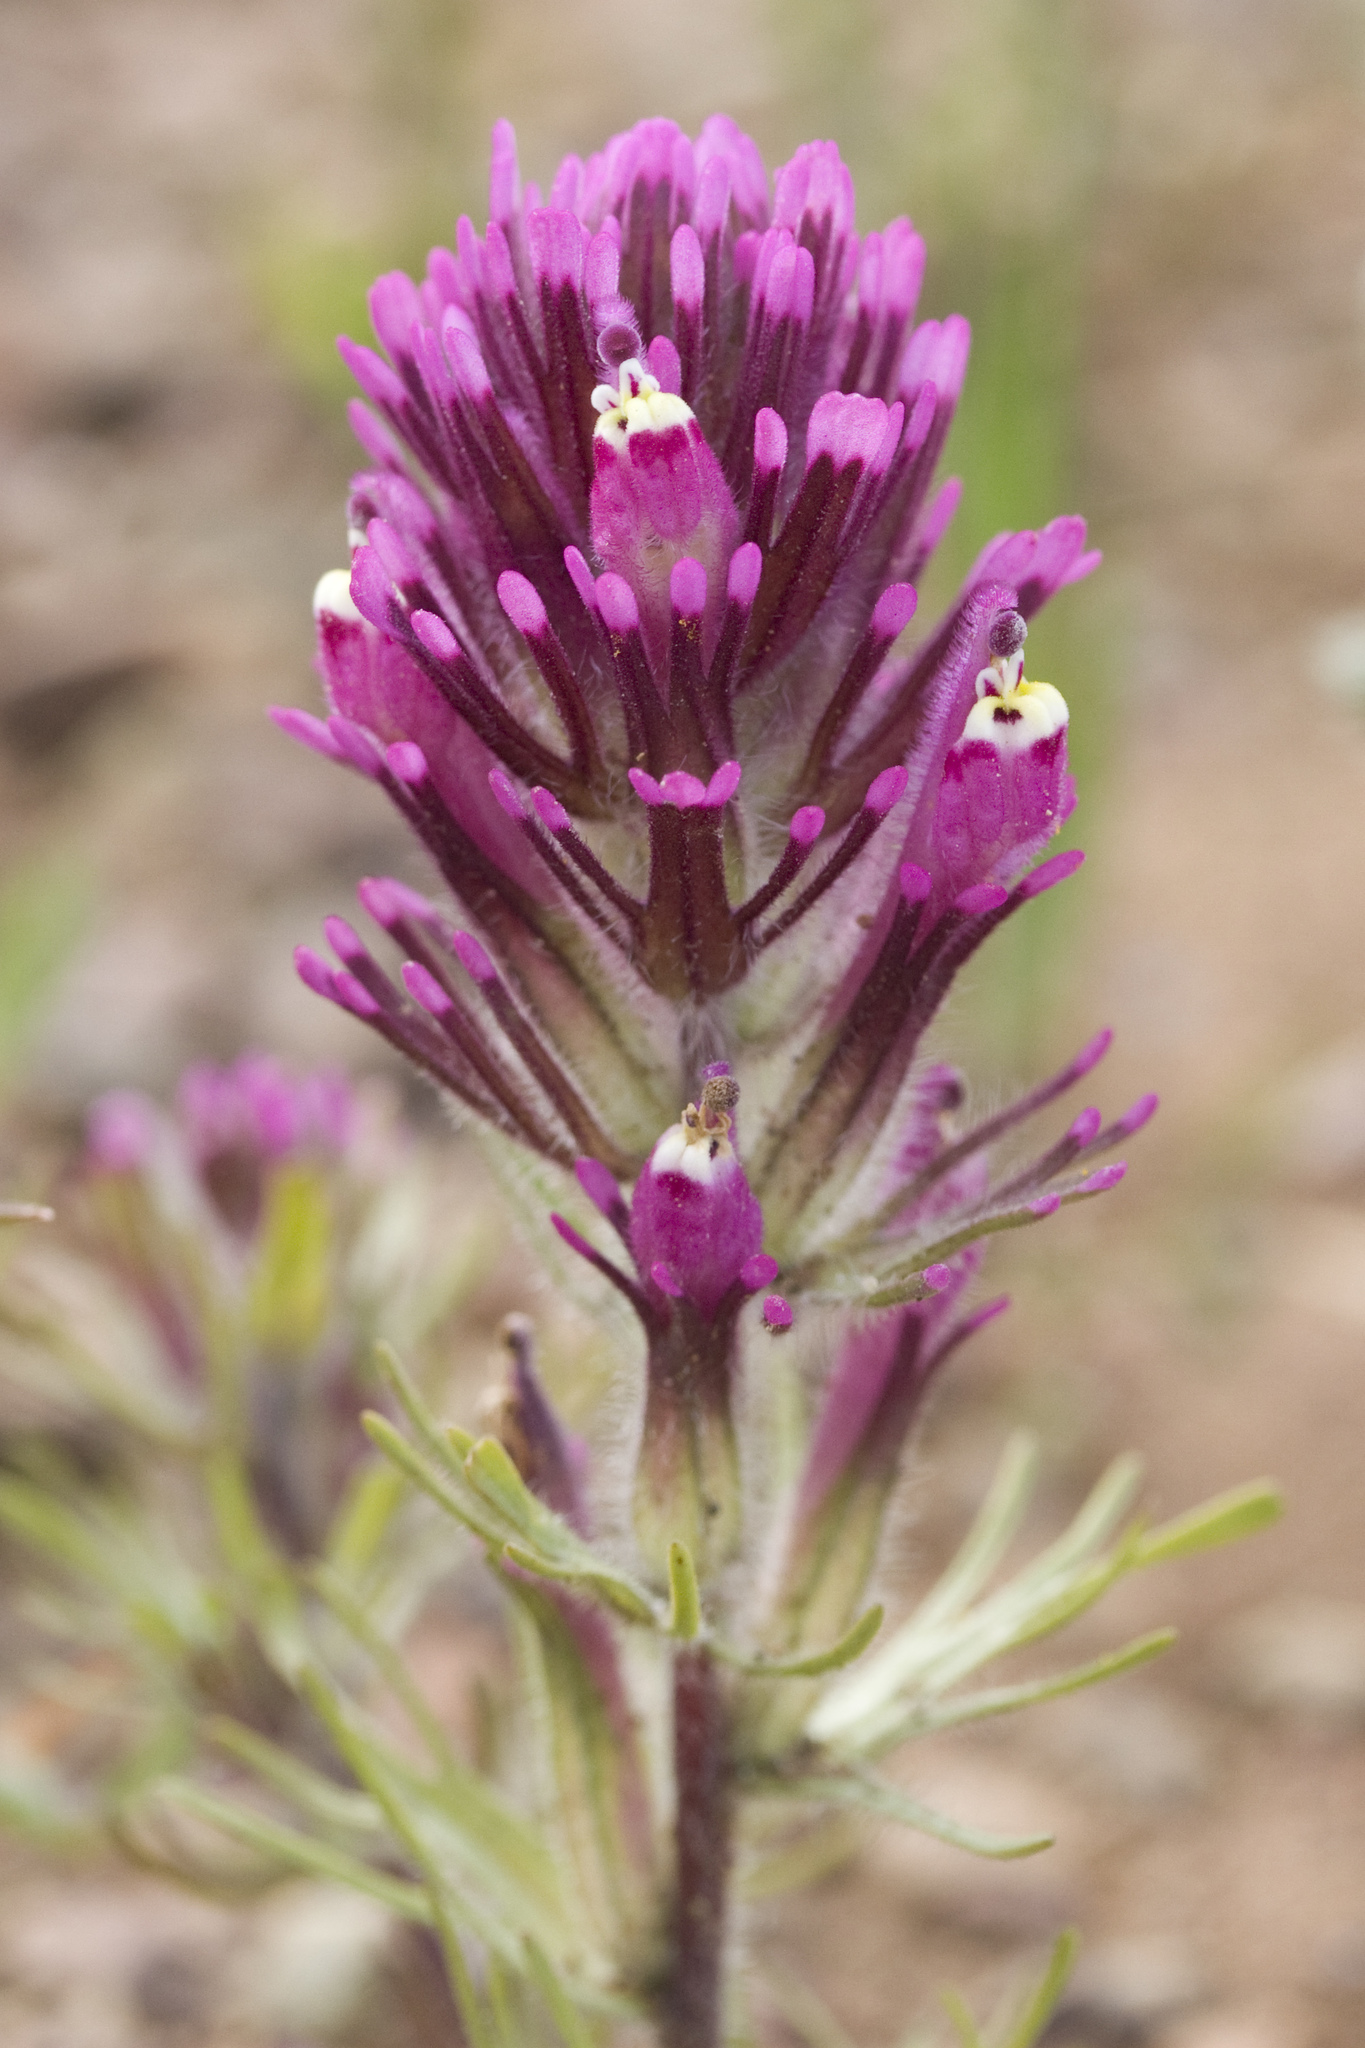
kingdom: Plantae
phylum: Tracheophyta
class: Magnoliopsida
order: Lamiales
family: Orobanchaceae
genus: Castilleja
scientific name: Castilleja exserta
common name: Purple owl-clover
